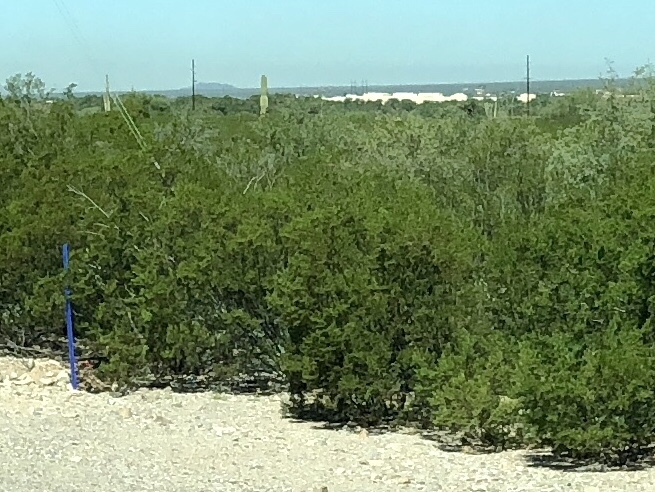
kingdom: Plantae
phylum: Tracheophyta
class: Magnoliopsida
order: Zygophyllales
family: Zygophyllaceae
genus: Larrea
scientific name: Larrea tridentata
